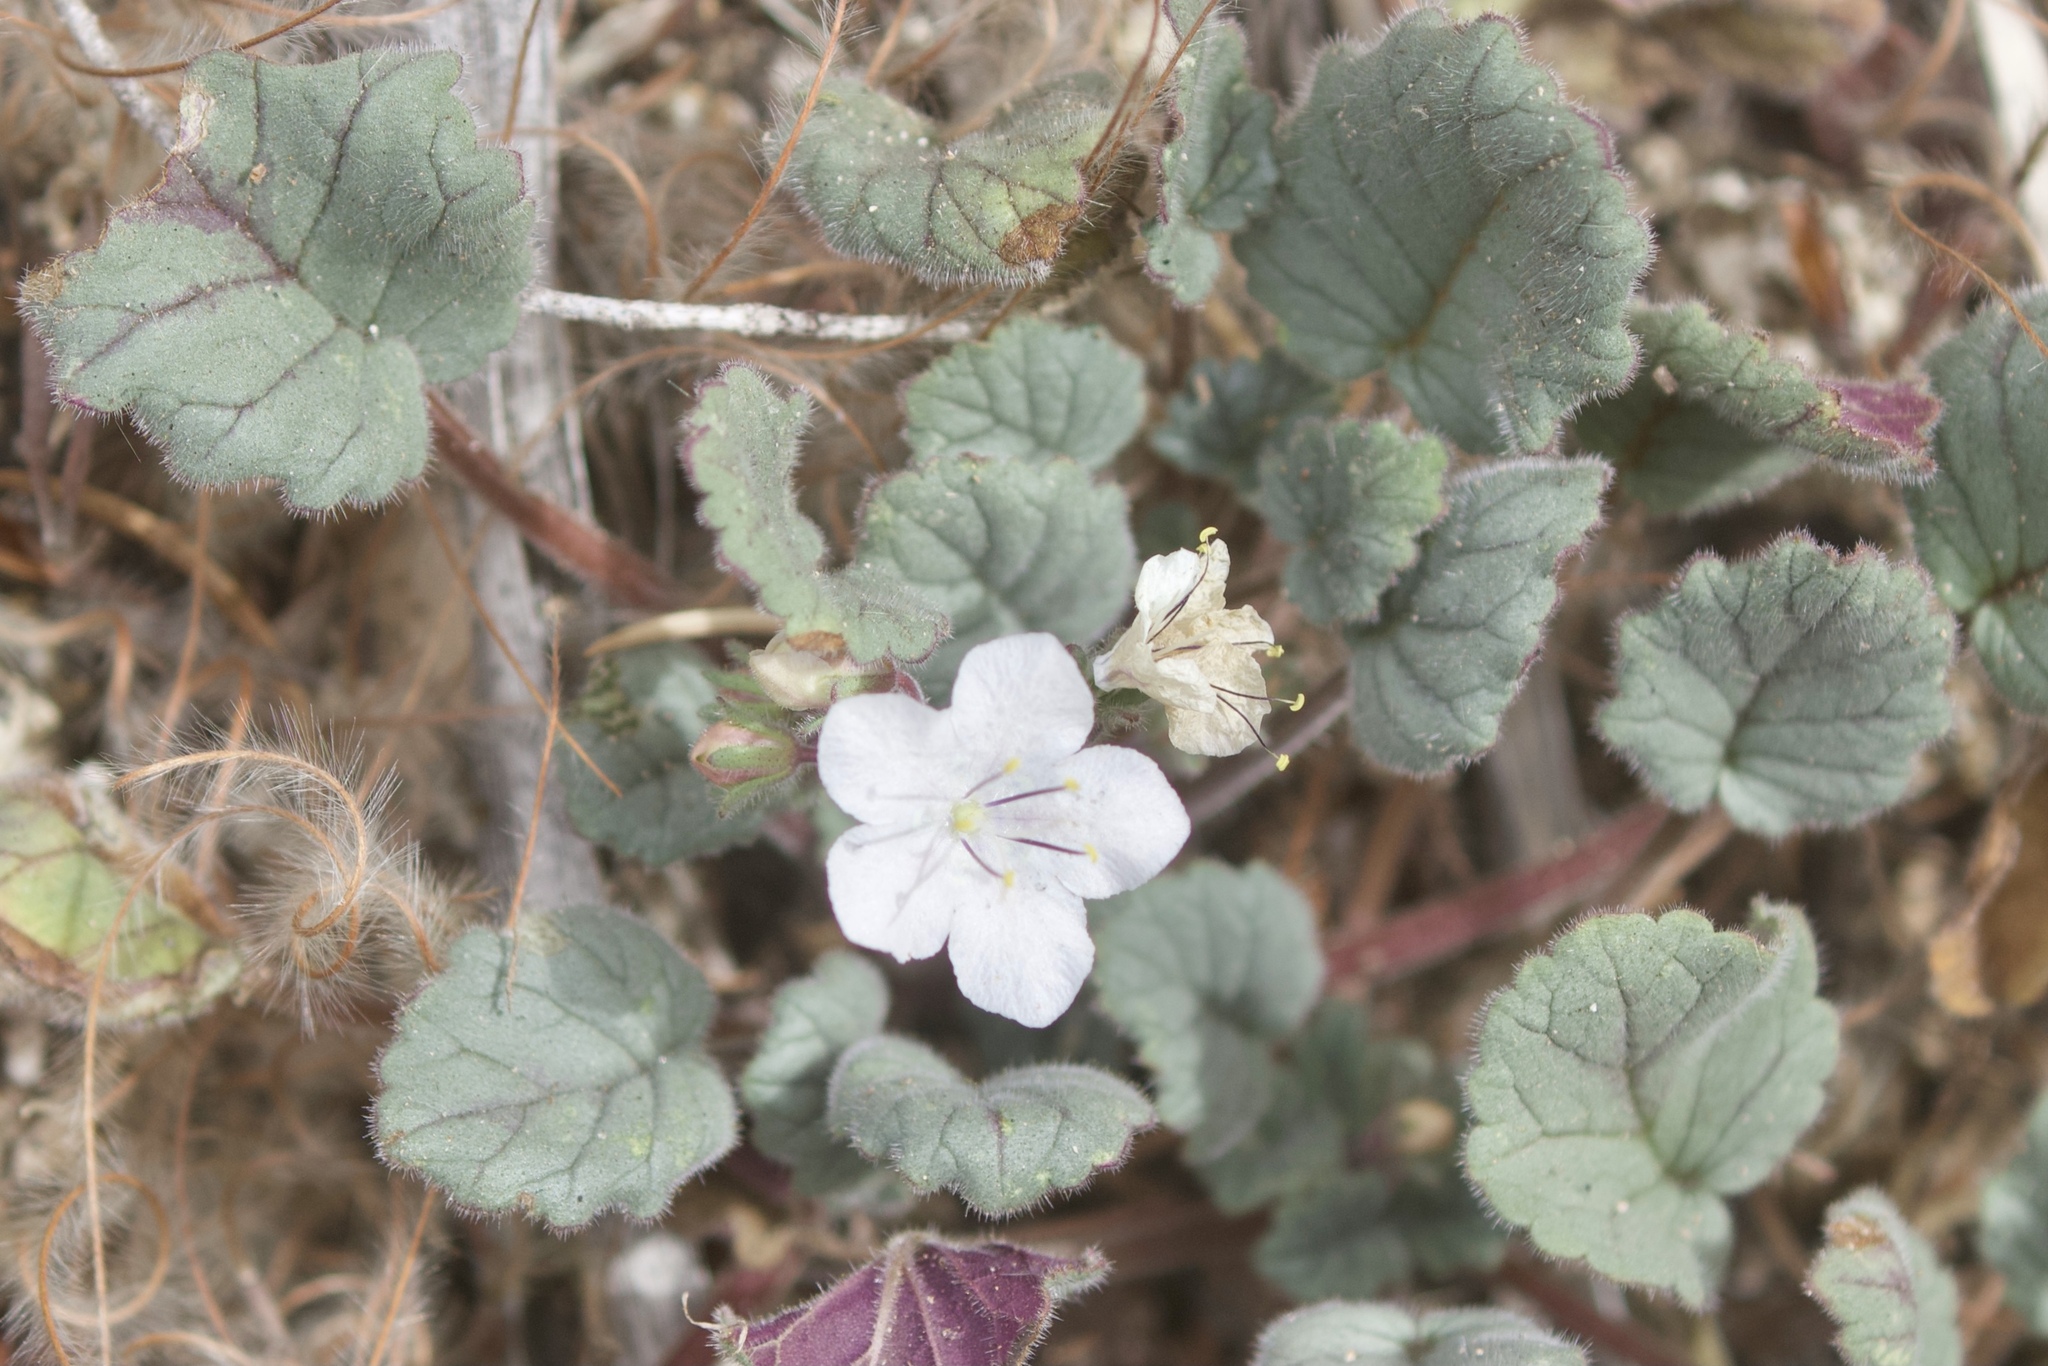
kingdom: Plantae
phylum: Tracheophyta
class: Magnoliopsida
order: Boraginales
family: Hydrophyllaceae
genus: Phacelia
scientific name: Phacelia longipes
